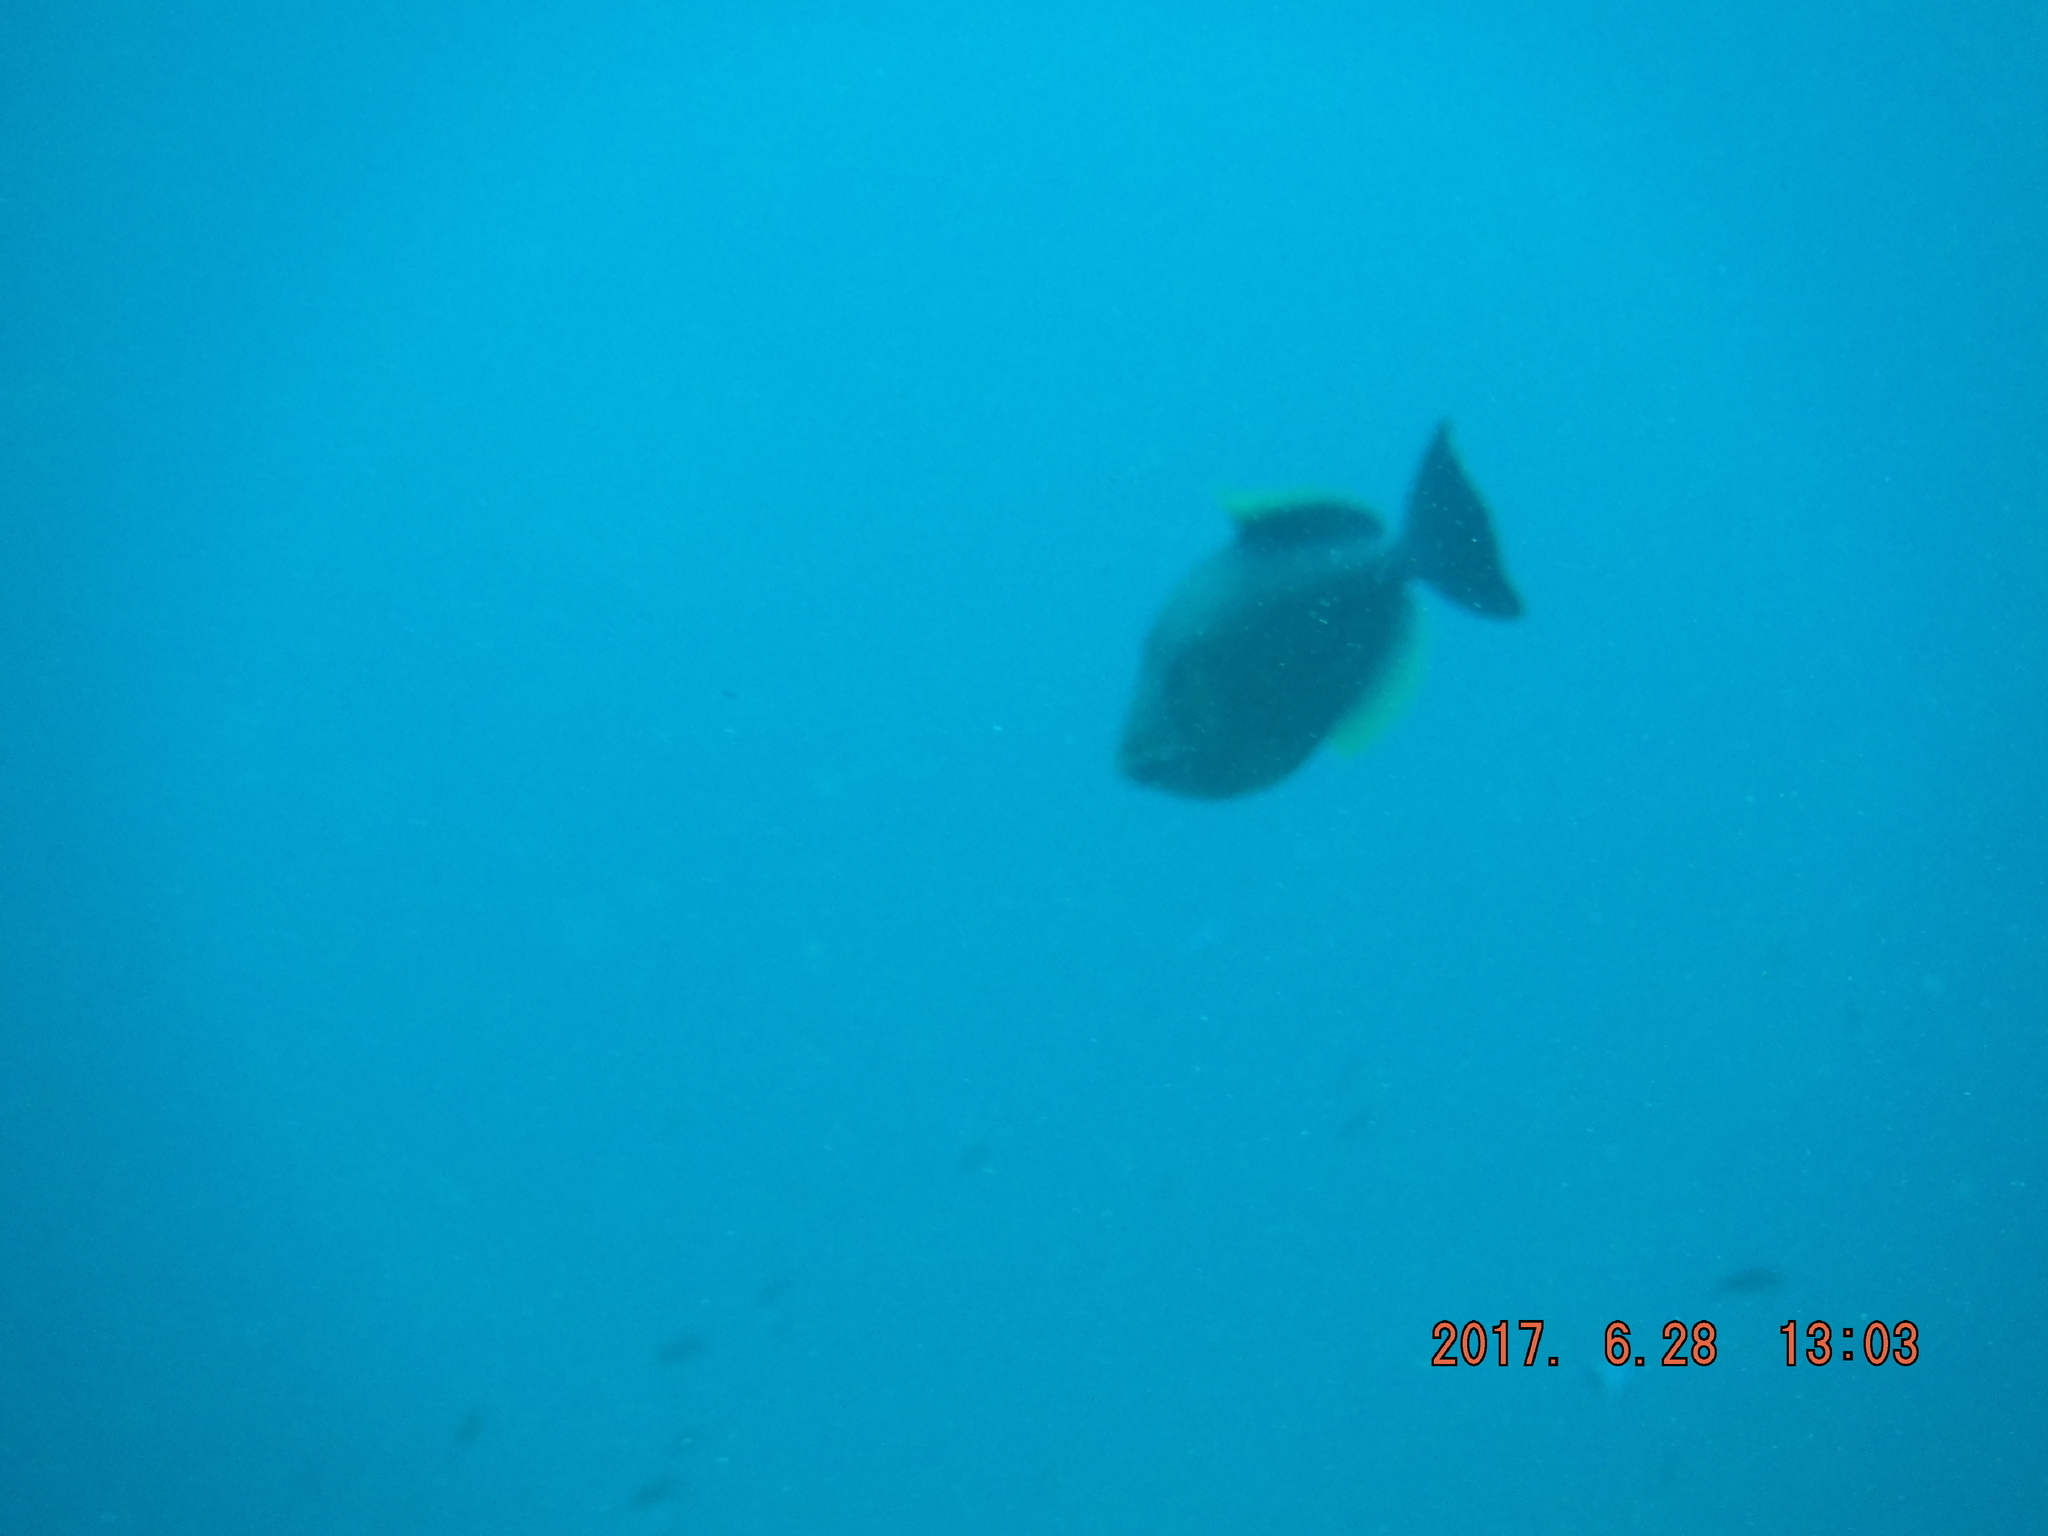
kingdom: Animalia
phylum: Chordata
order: Tetraodontiformes
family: Balistidae
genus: Sufflamen
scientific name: Sufflamen fraenatum
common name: Bridle triggerfish
